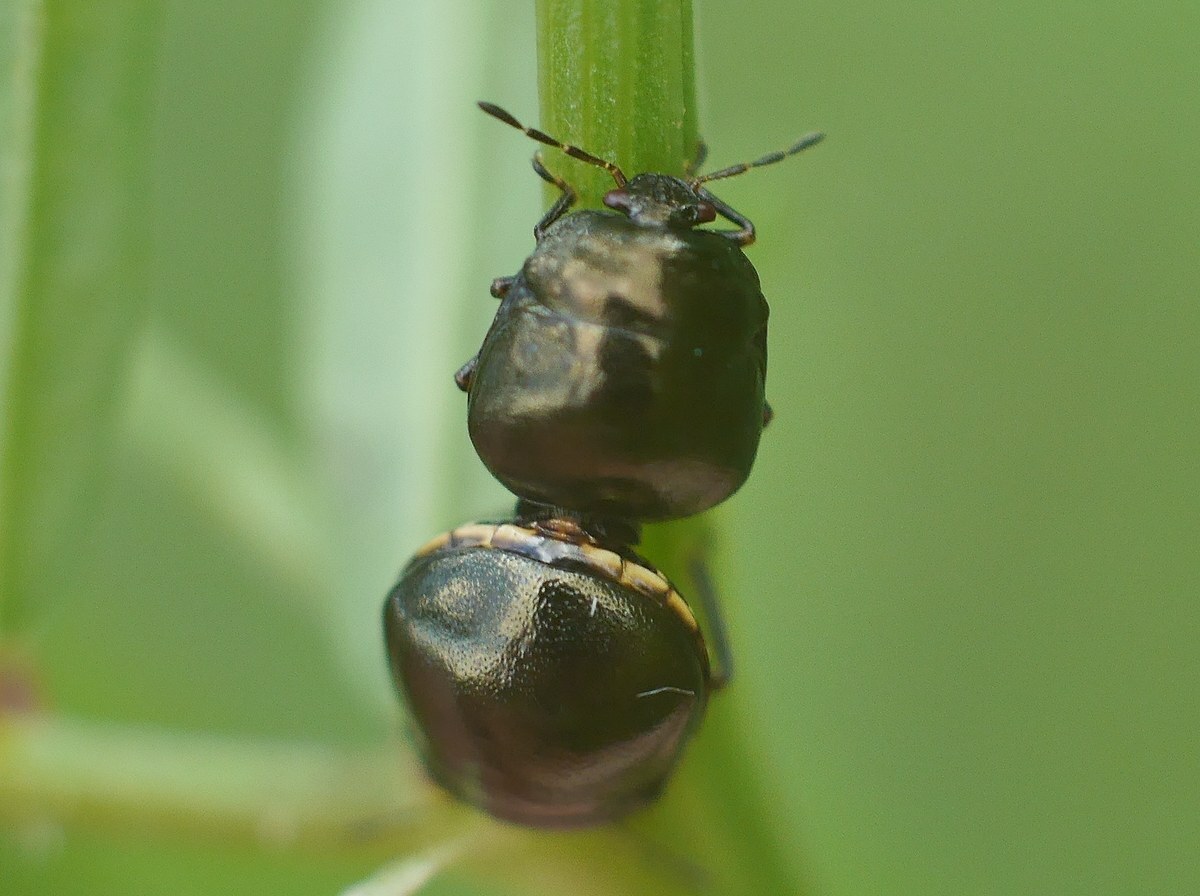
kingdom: Animalia
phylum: Arthropoda
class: Insecta
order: Hemiptera
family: Plataspidae
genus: Coptosoma
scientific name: Coptosoma scutellatum
